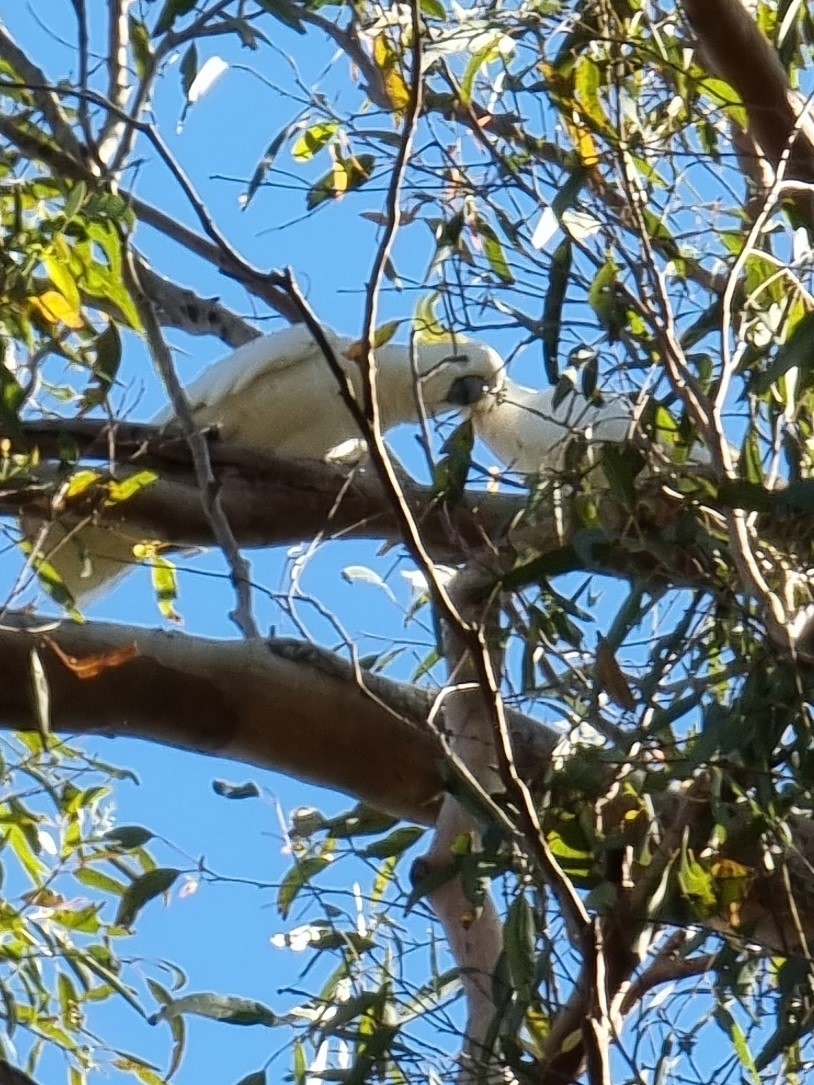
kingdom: Animalia
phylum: Chordata
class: Aves
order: Psittaciformes
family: Psittacidae
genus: Cacatua
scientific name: Cacatua galerita
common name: Sulphur-crested cockatoo
